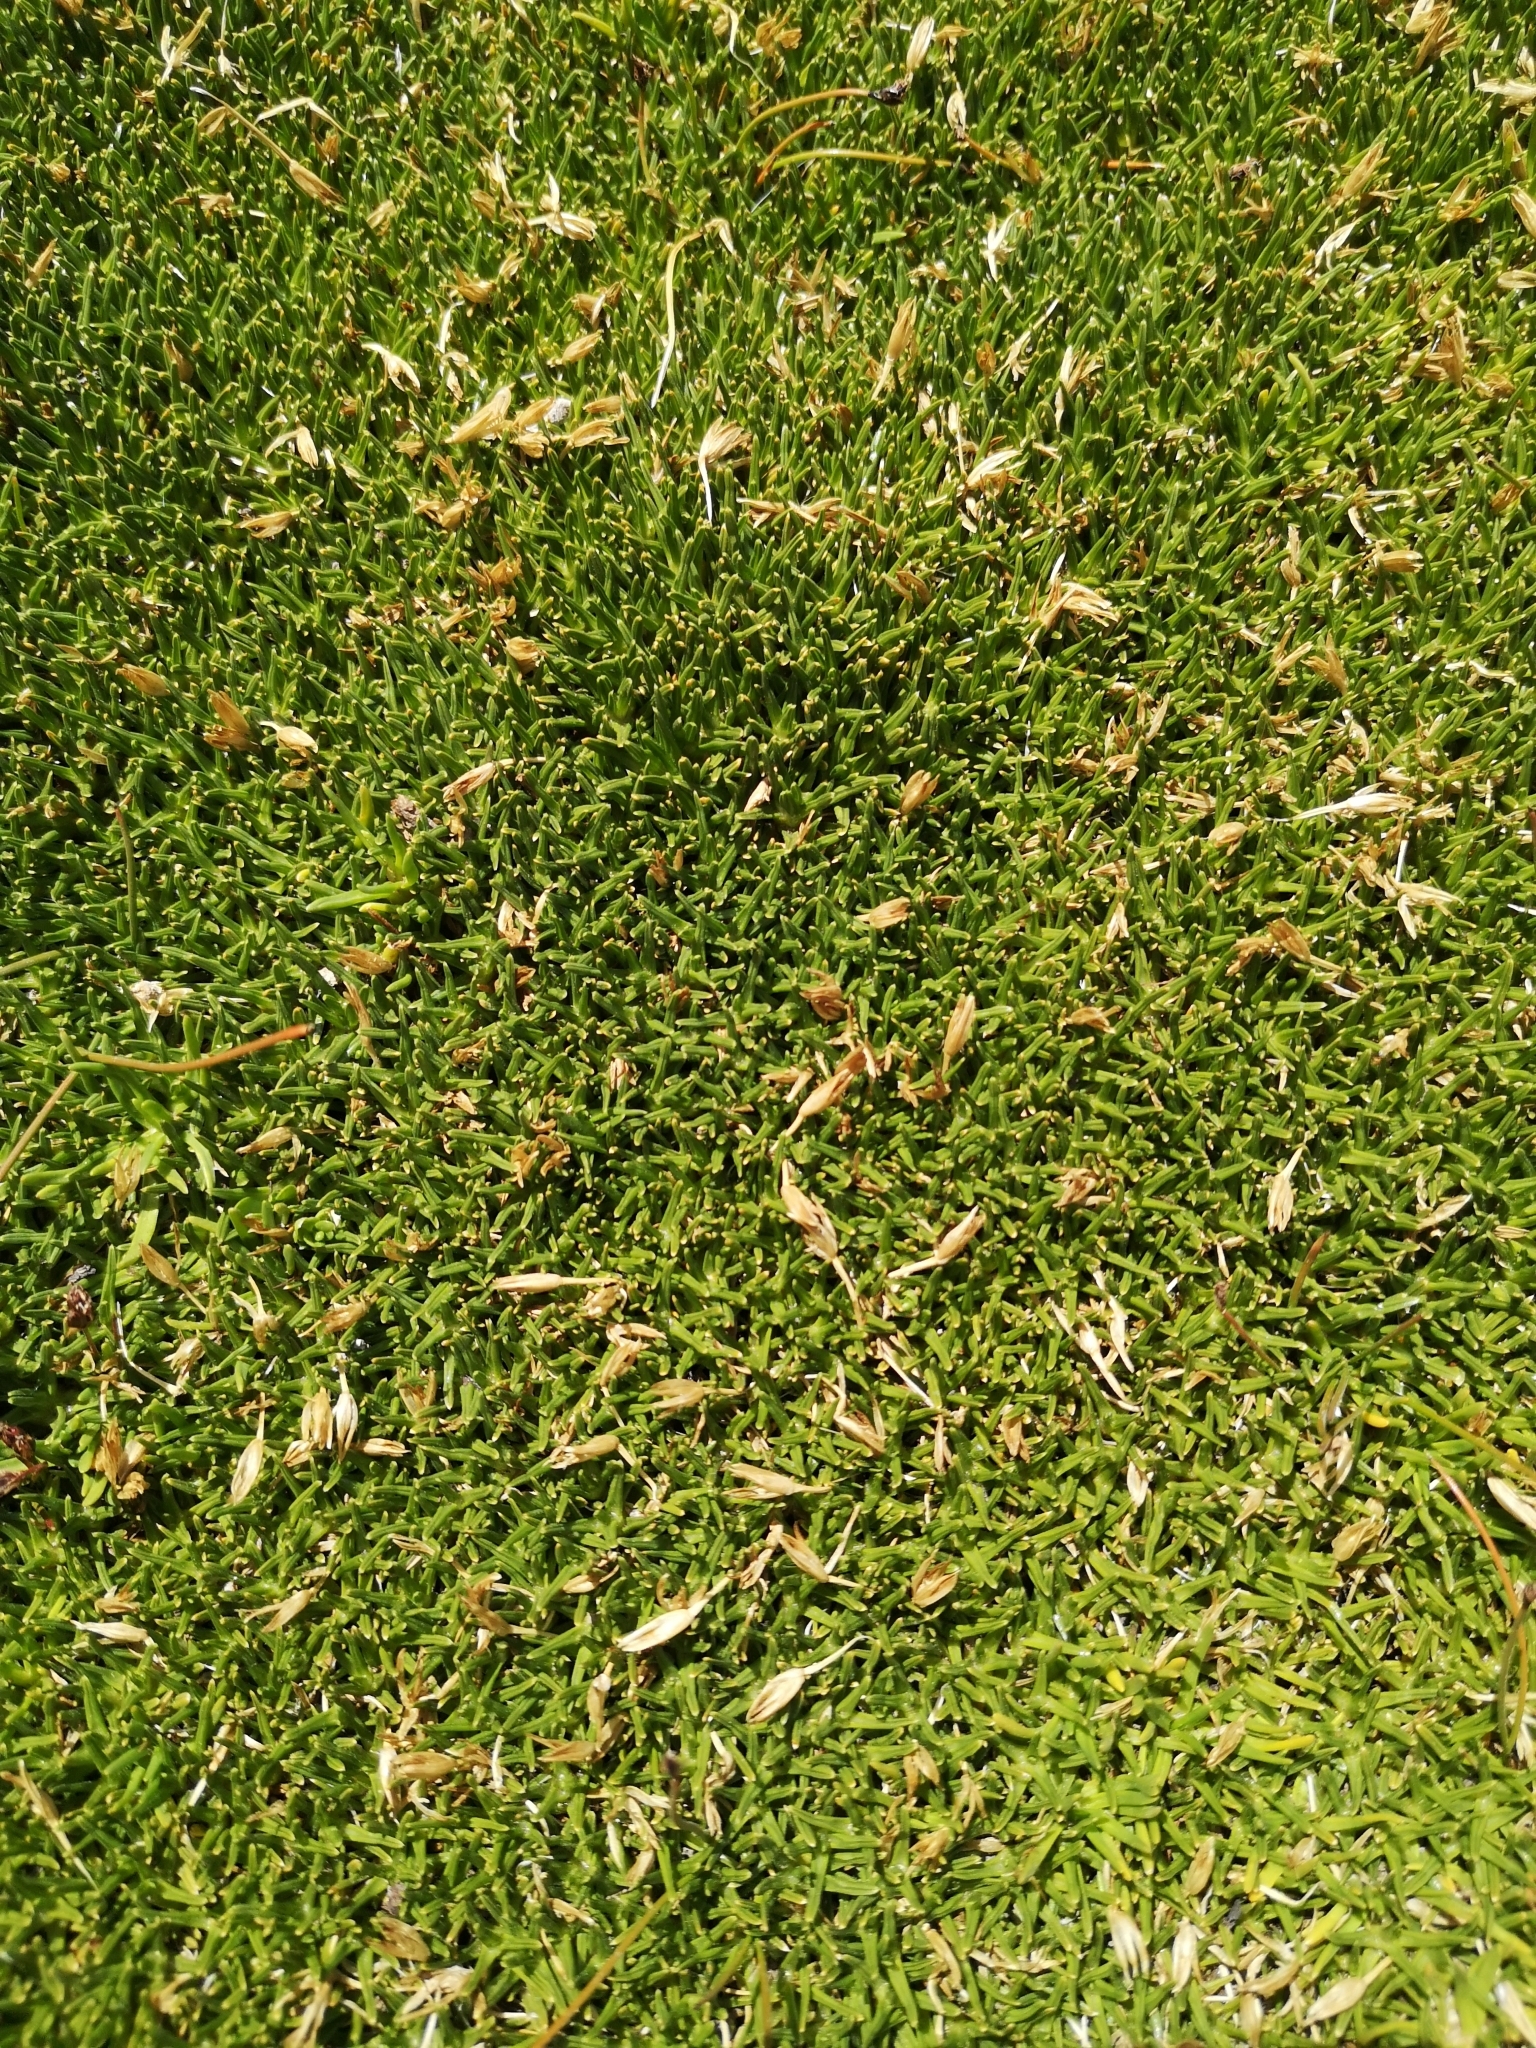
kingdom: Plantae
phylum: Tracheophyta
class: Liliopsida
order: Poales
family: Juncaceae
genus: Patosia
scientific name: Patosia clandestina
